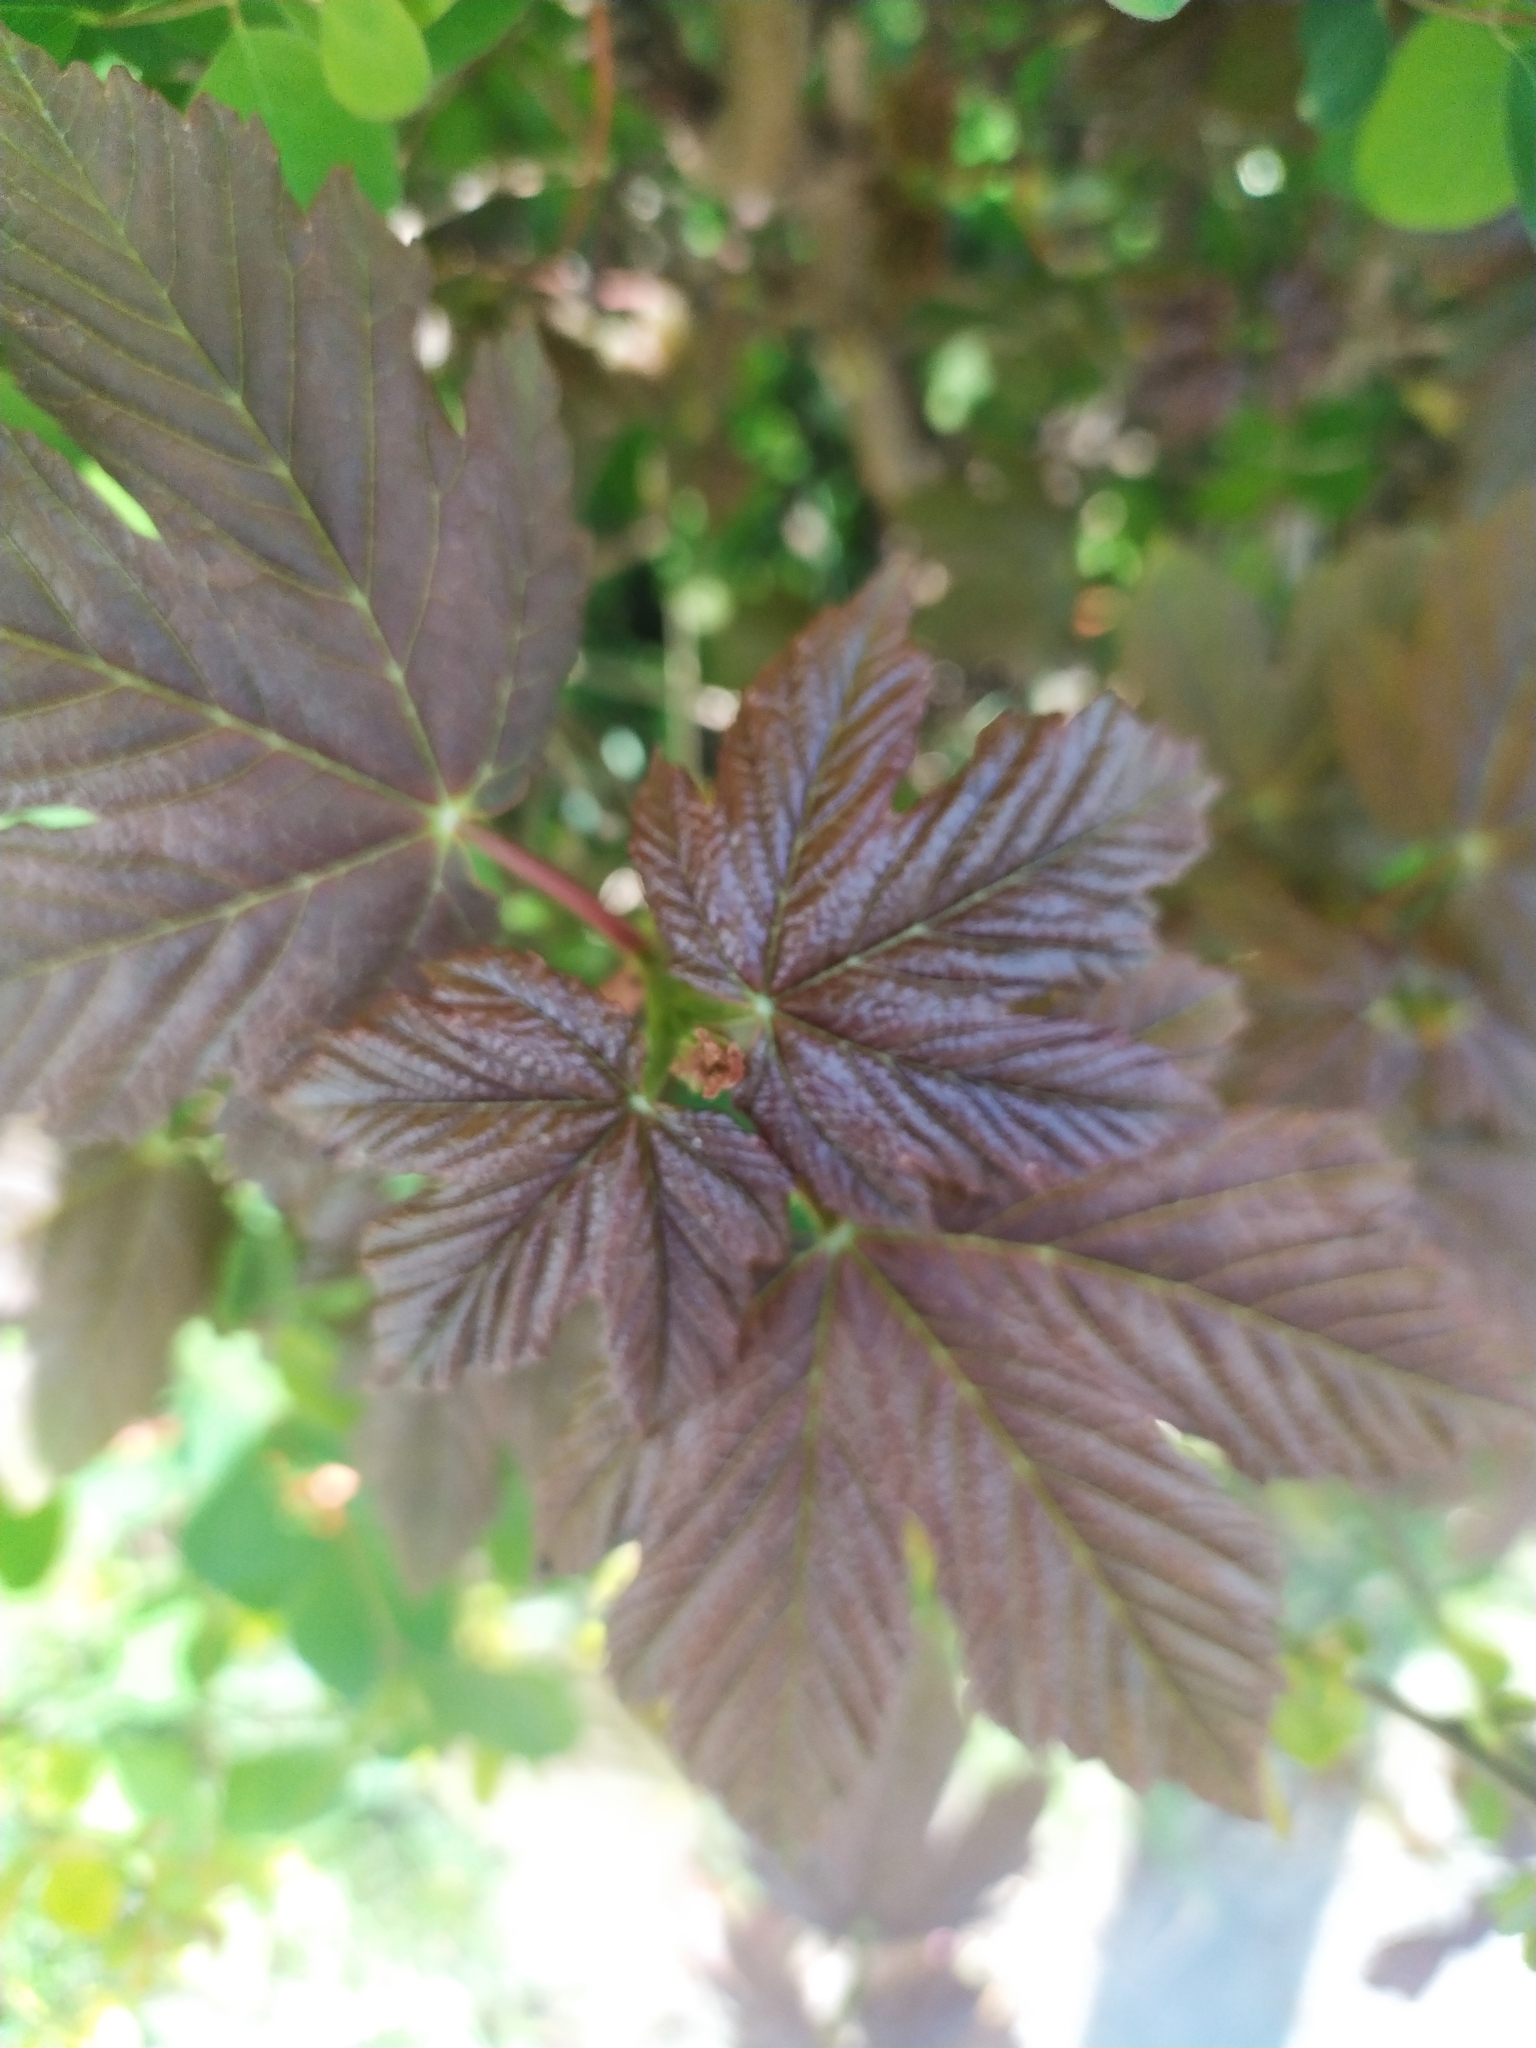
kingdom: Plantae
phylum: Tracheophyta
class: Magnoliopsida
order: Sapindales
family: Sapindaceae
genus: Acer
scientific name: Acer pseudoplatanus
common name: Sycamore
